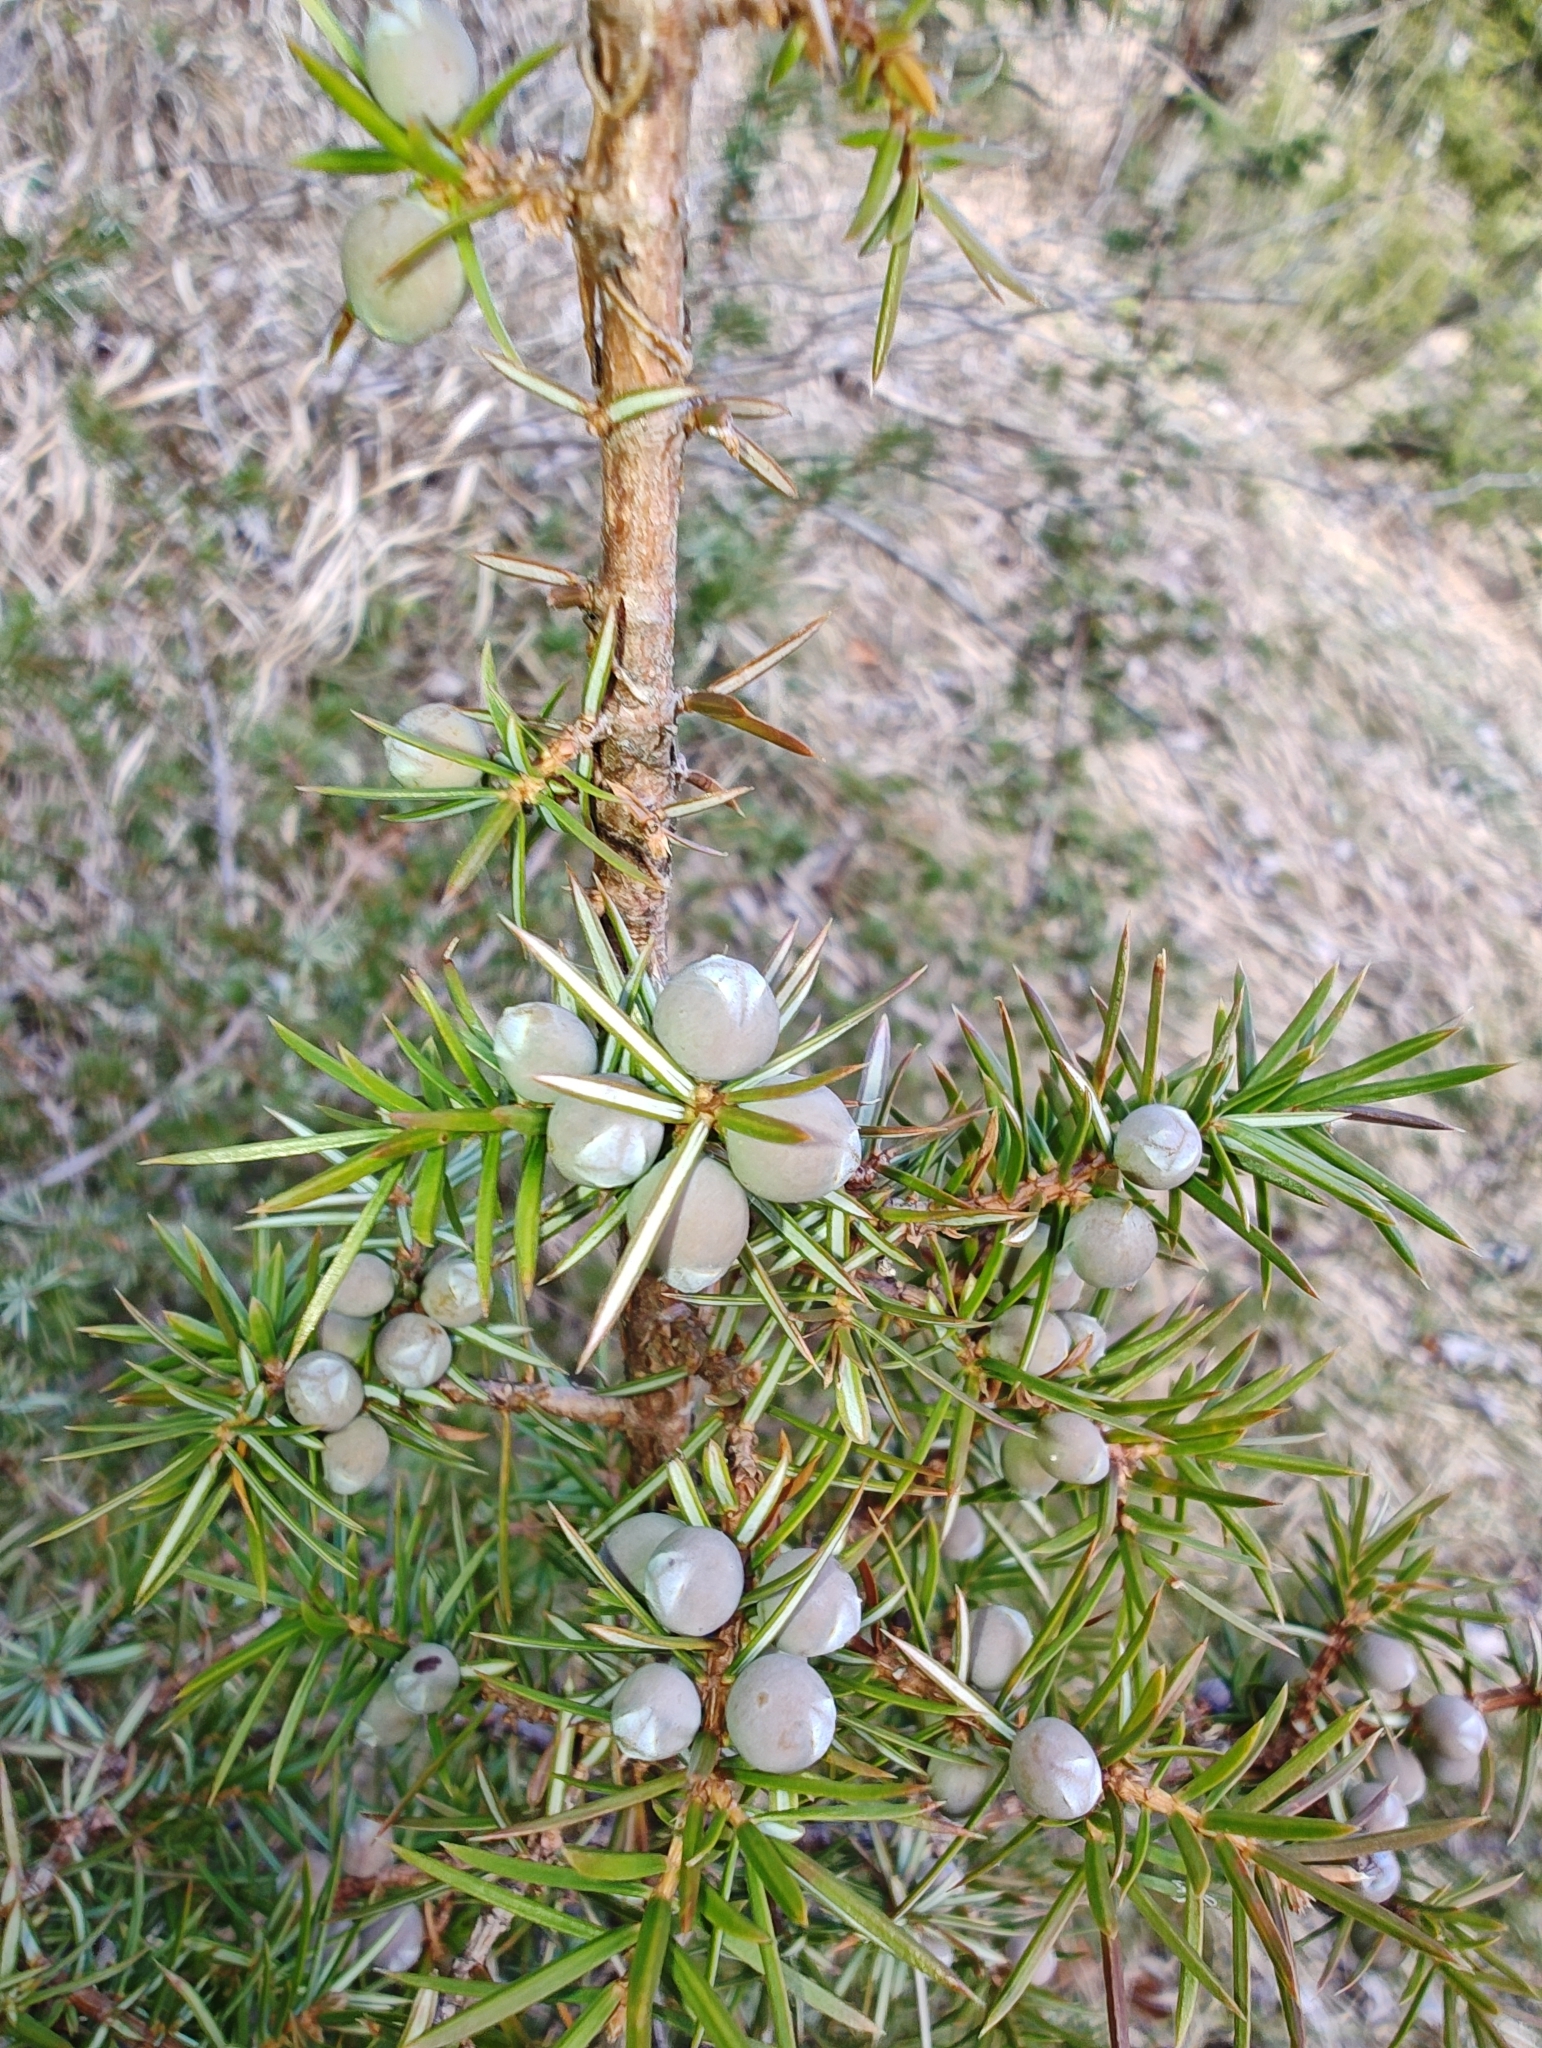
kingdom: Plantae
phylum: Tracheophyta
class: Pinopsida
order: Pinales
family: Cupressaceae
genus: Juniperus
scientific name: Juniperus communis
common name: Common juniper
